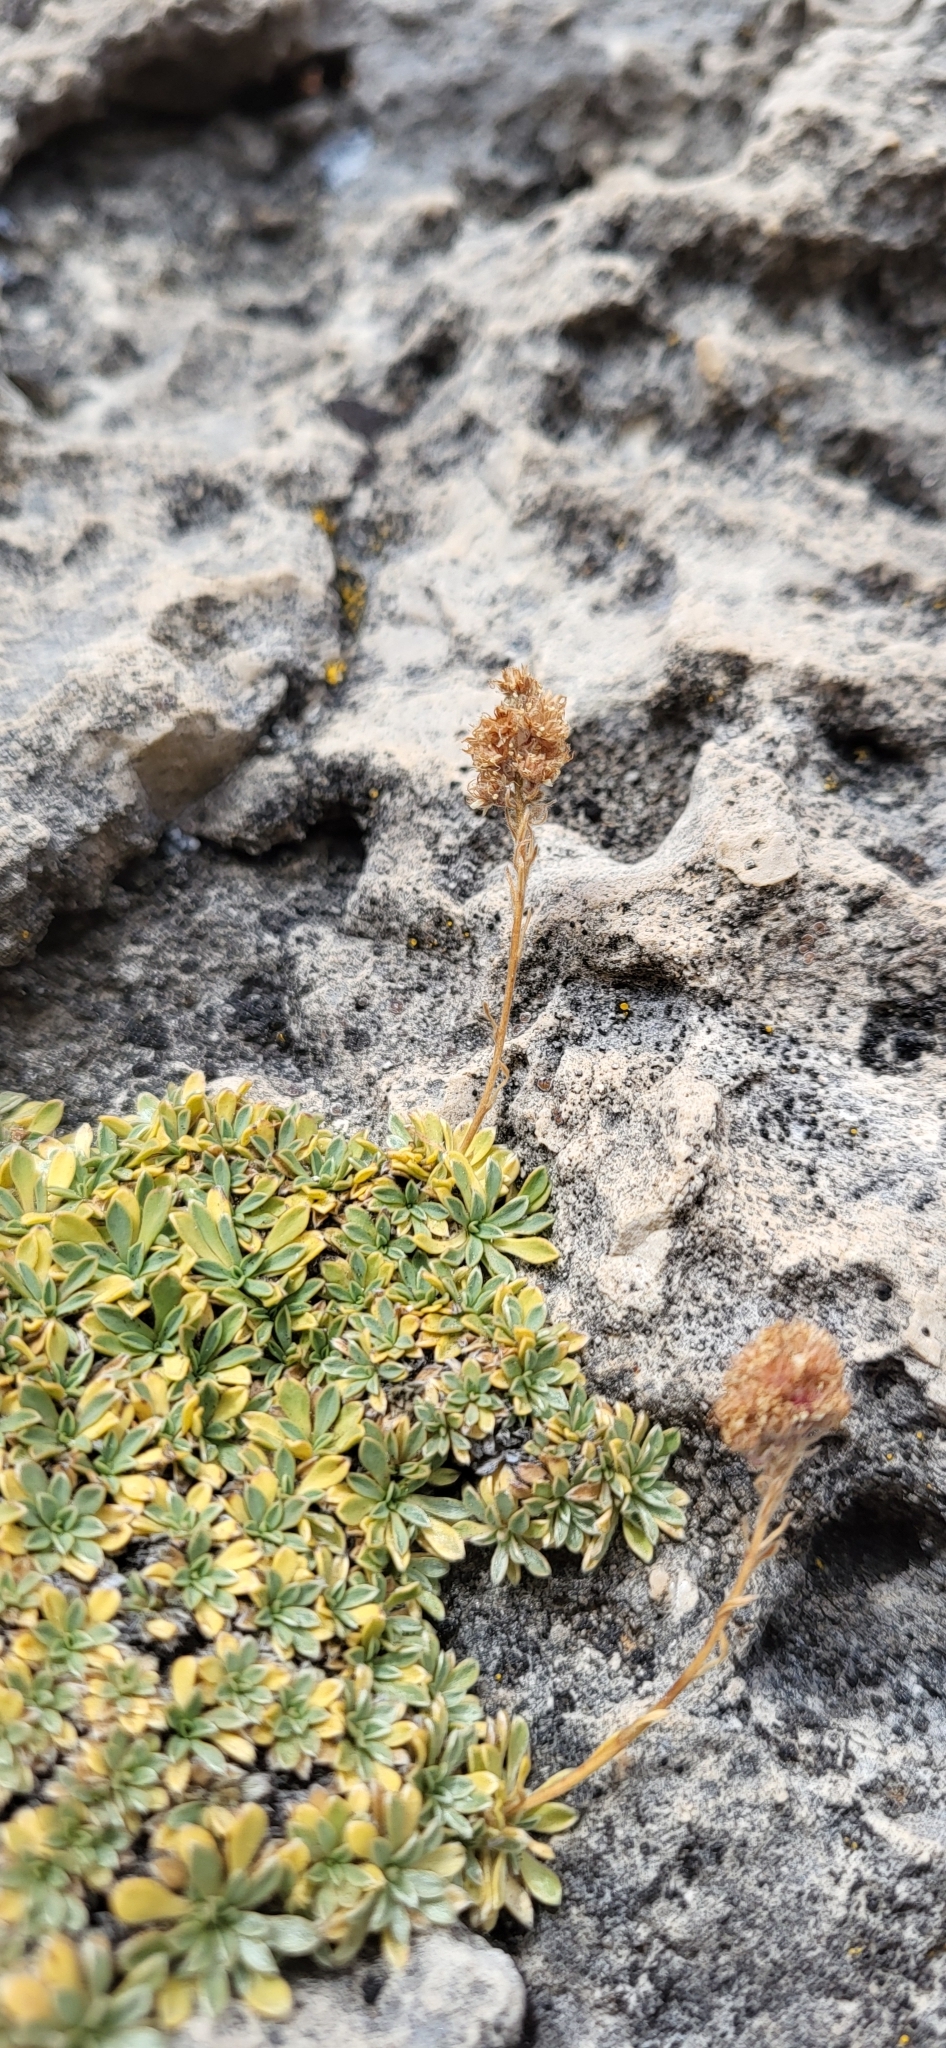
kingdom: Plantae
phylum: Tracheophyta
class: Magnoliopsida
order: Rosales
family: Rosaceae
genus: Petrophytum
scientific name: Petrophytum caespitosum
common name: Mat rockspirea
